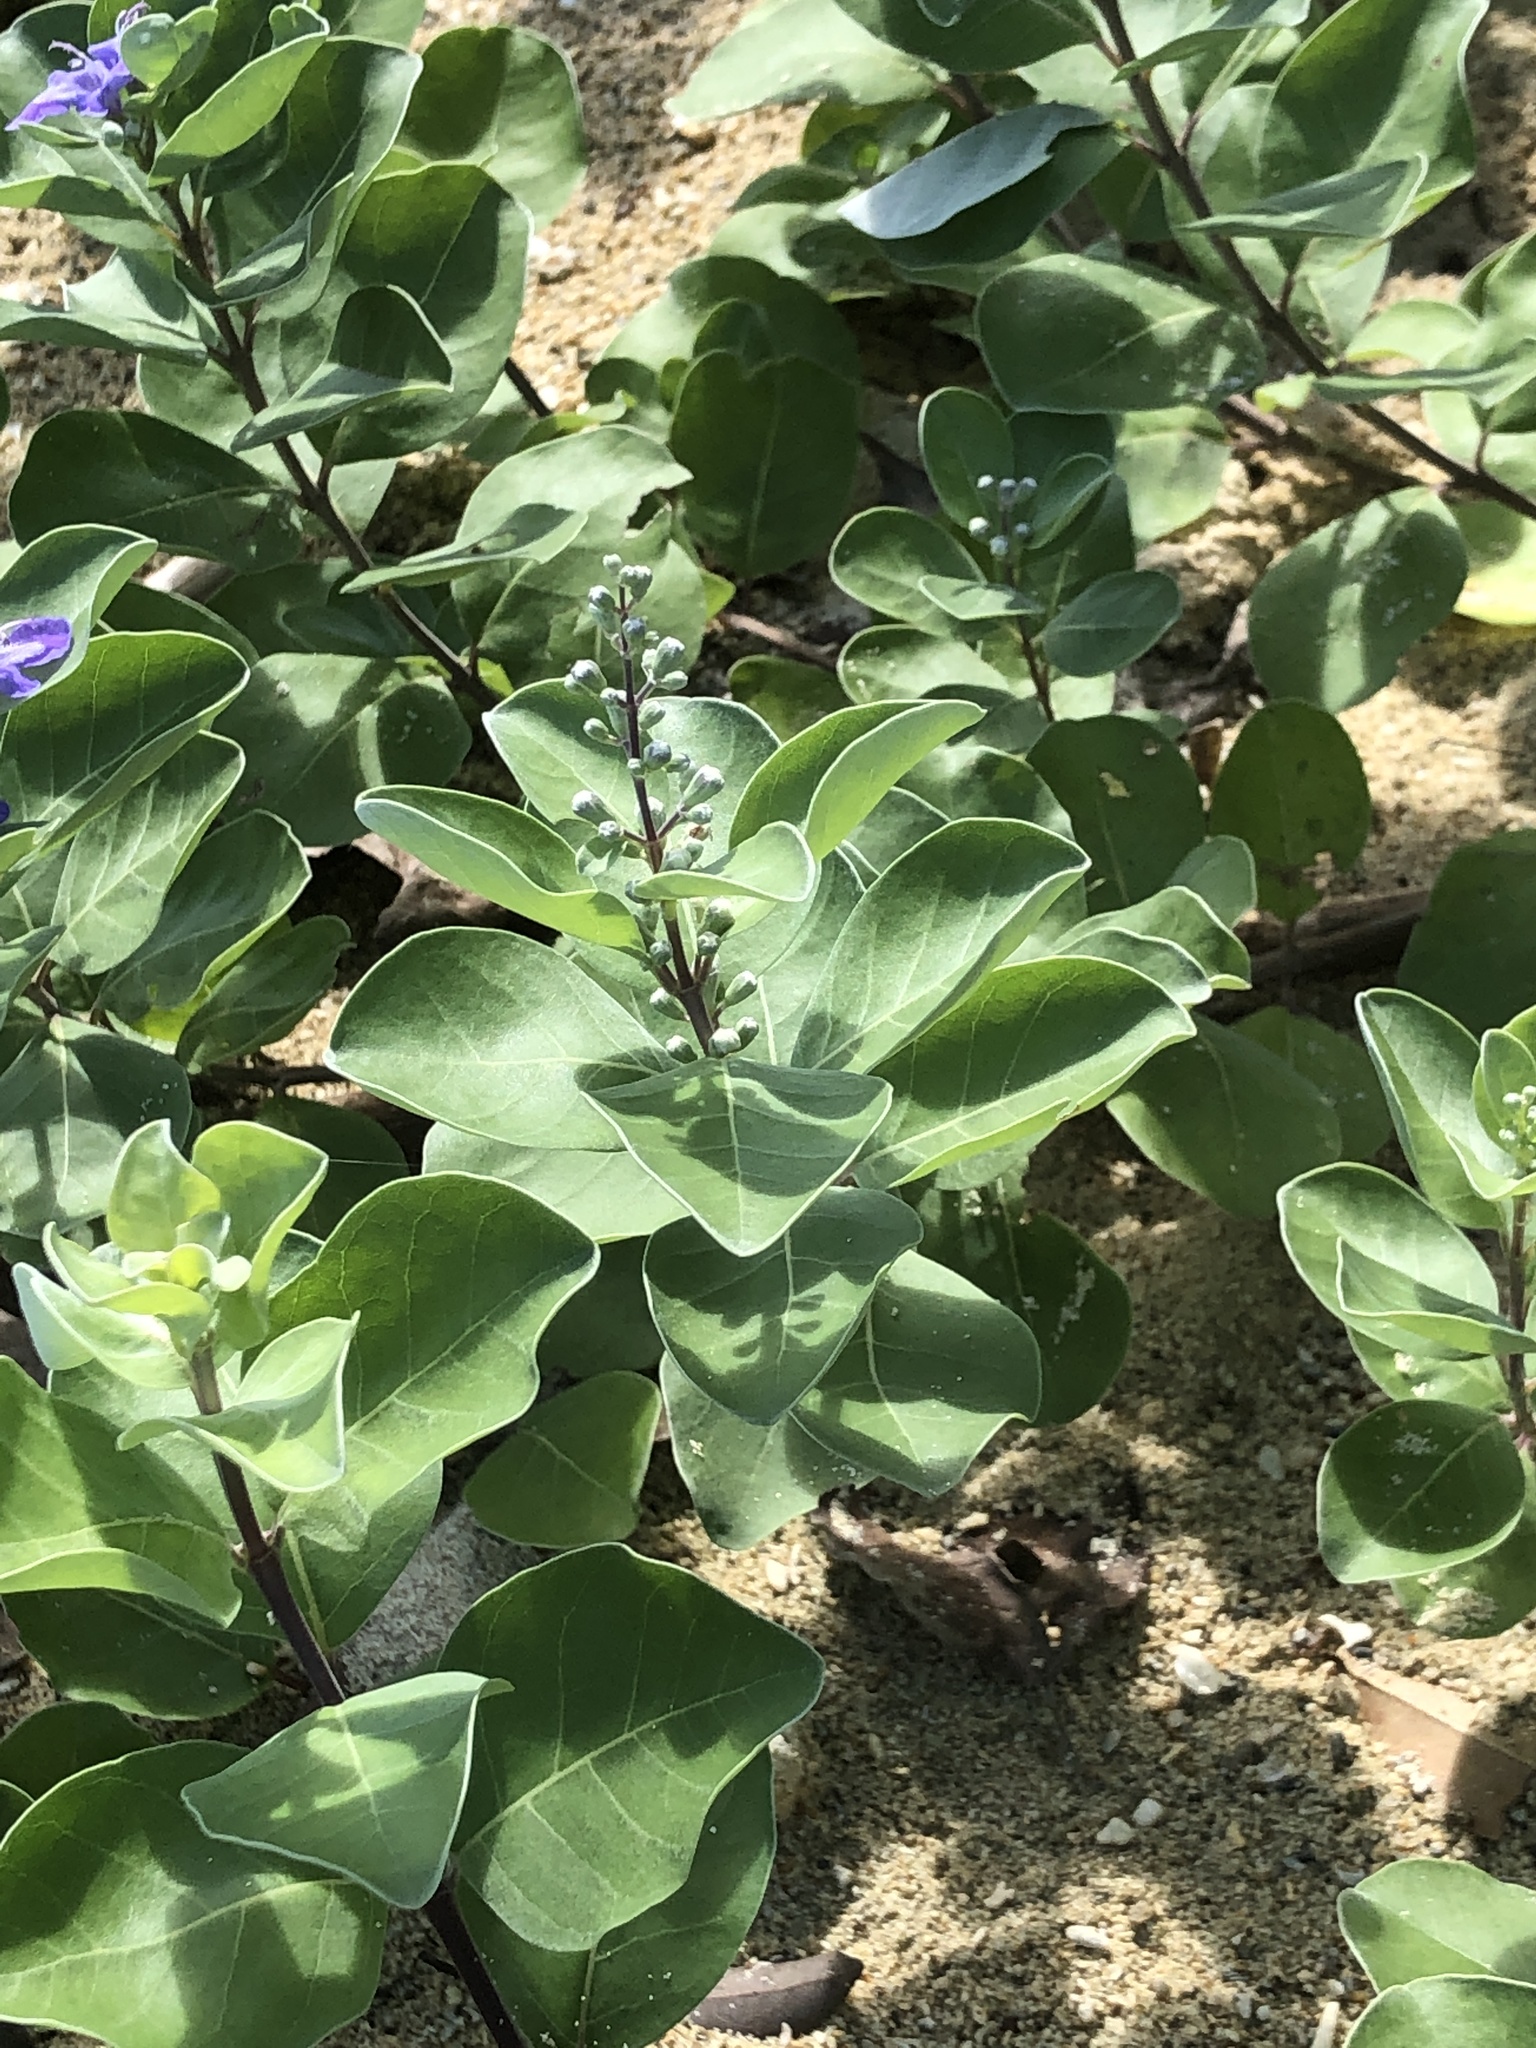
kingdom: Plantae
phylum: Tracheophyta
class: Magnoliopsida
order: Lamiales
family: Lamiaceae
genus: Vitex
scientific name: Vitex rotundifolia
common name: Beach vitex
